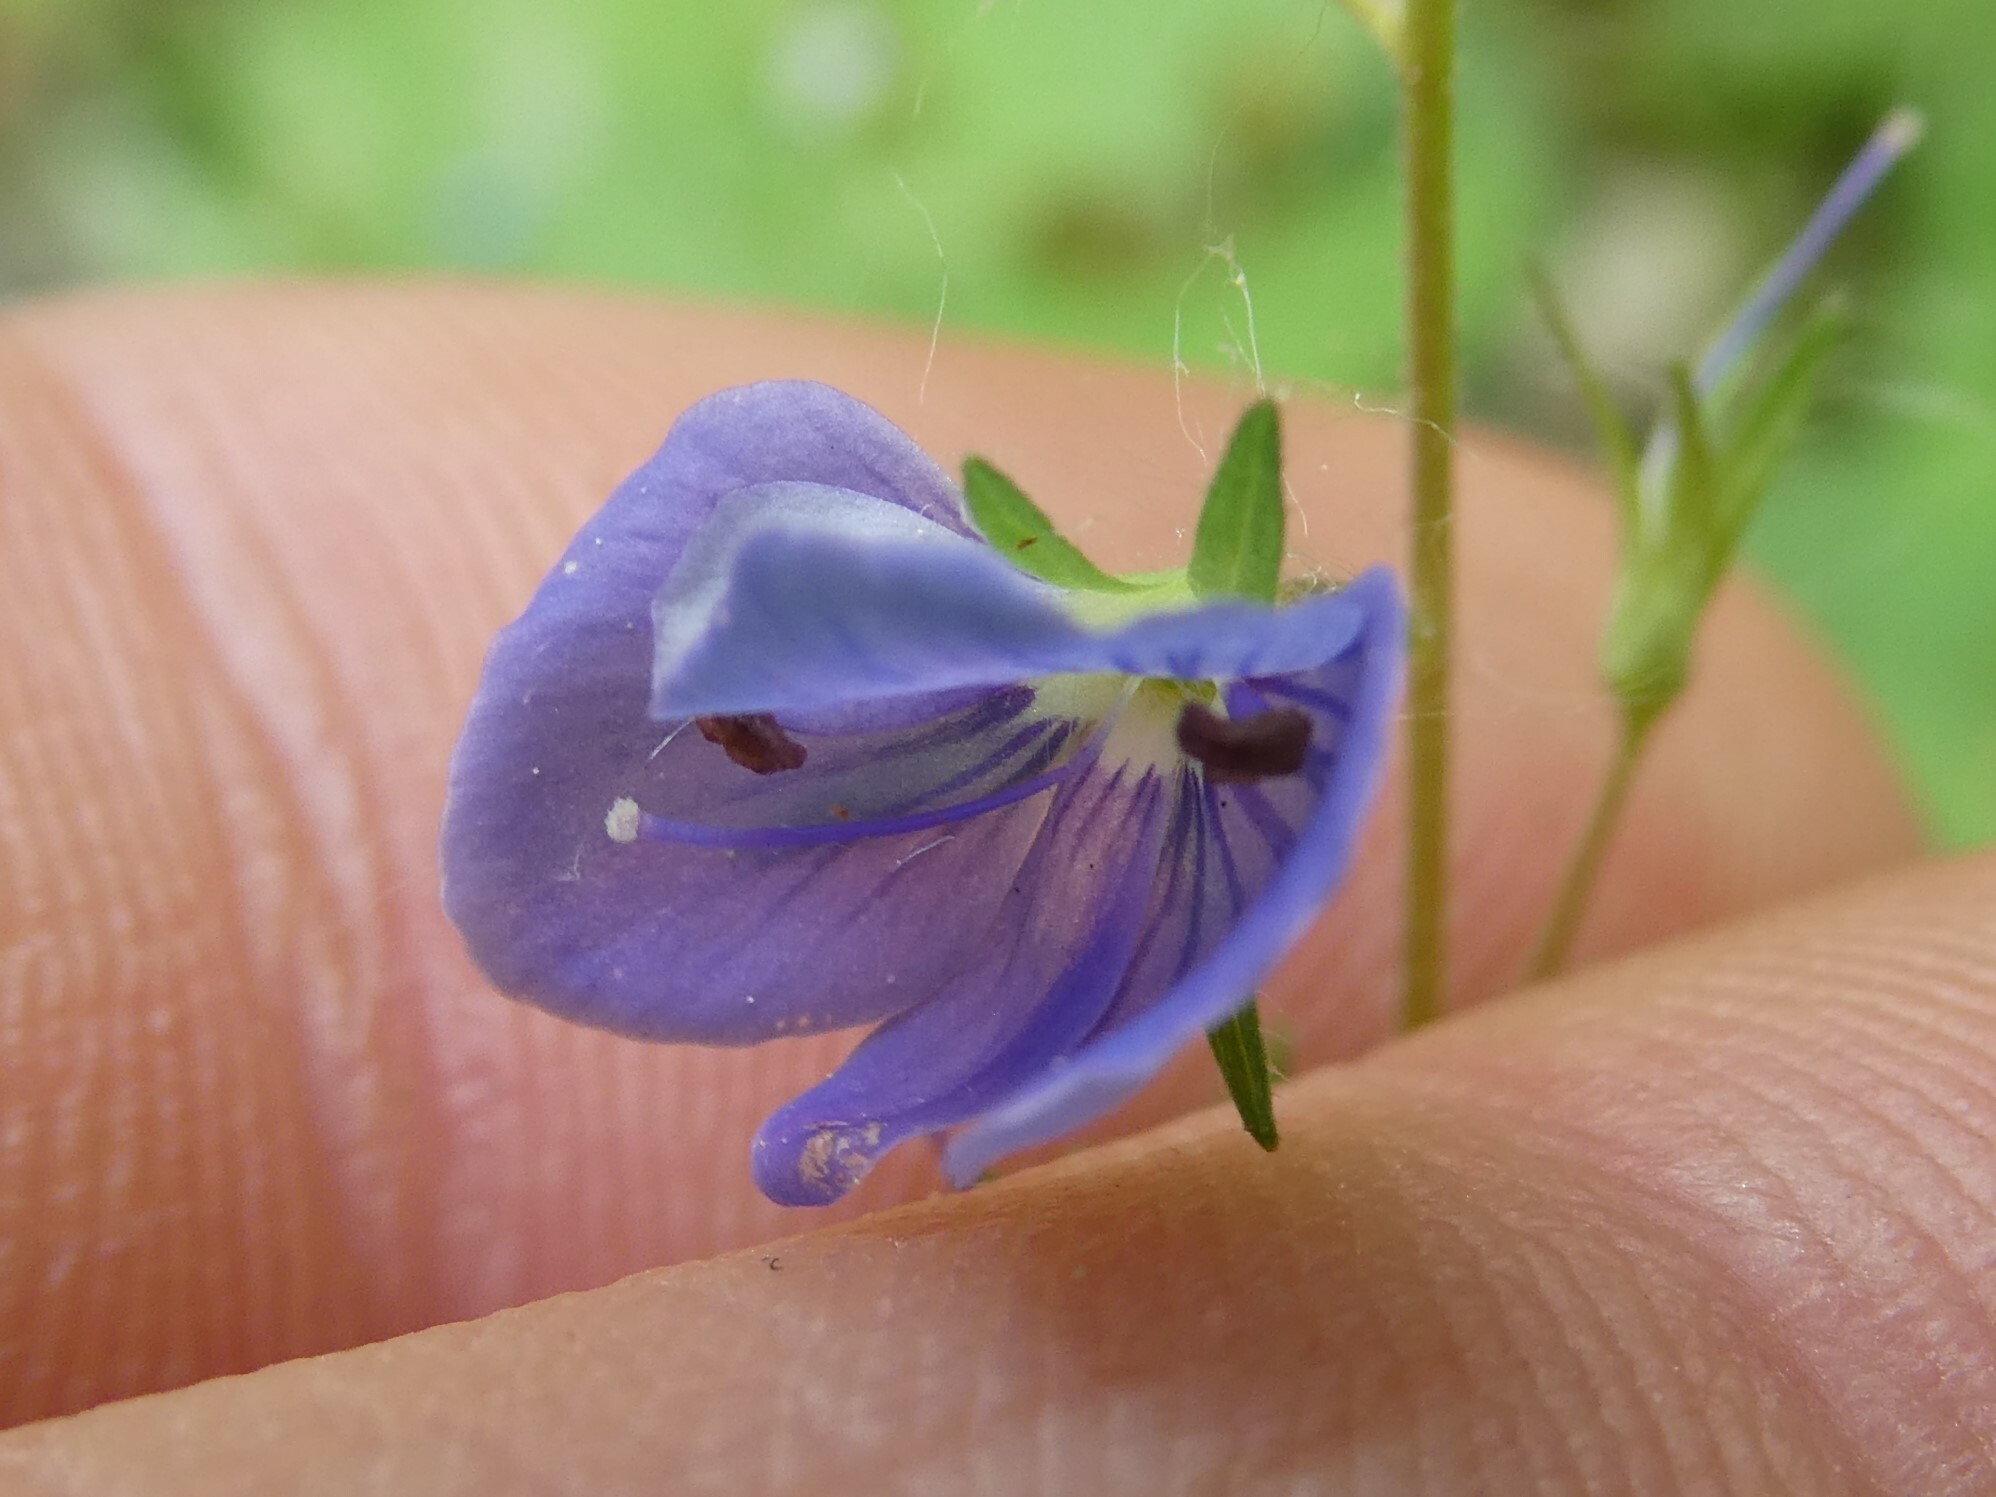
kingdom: Plantae
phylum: Tracheophyta
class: Magnoliopsida
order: Lamiales
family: Plantaginaceae
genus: Veronica
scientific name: Veronica chamaedrys
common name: Germander speedwell
